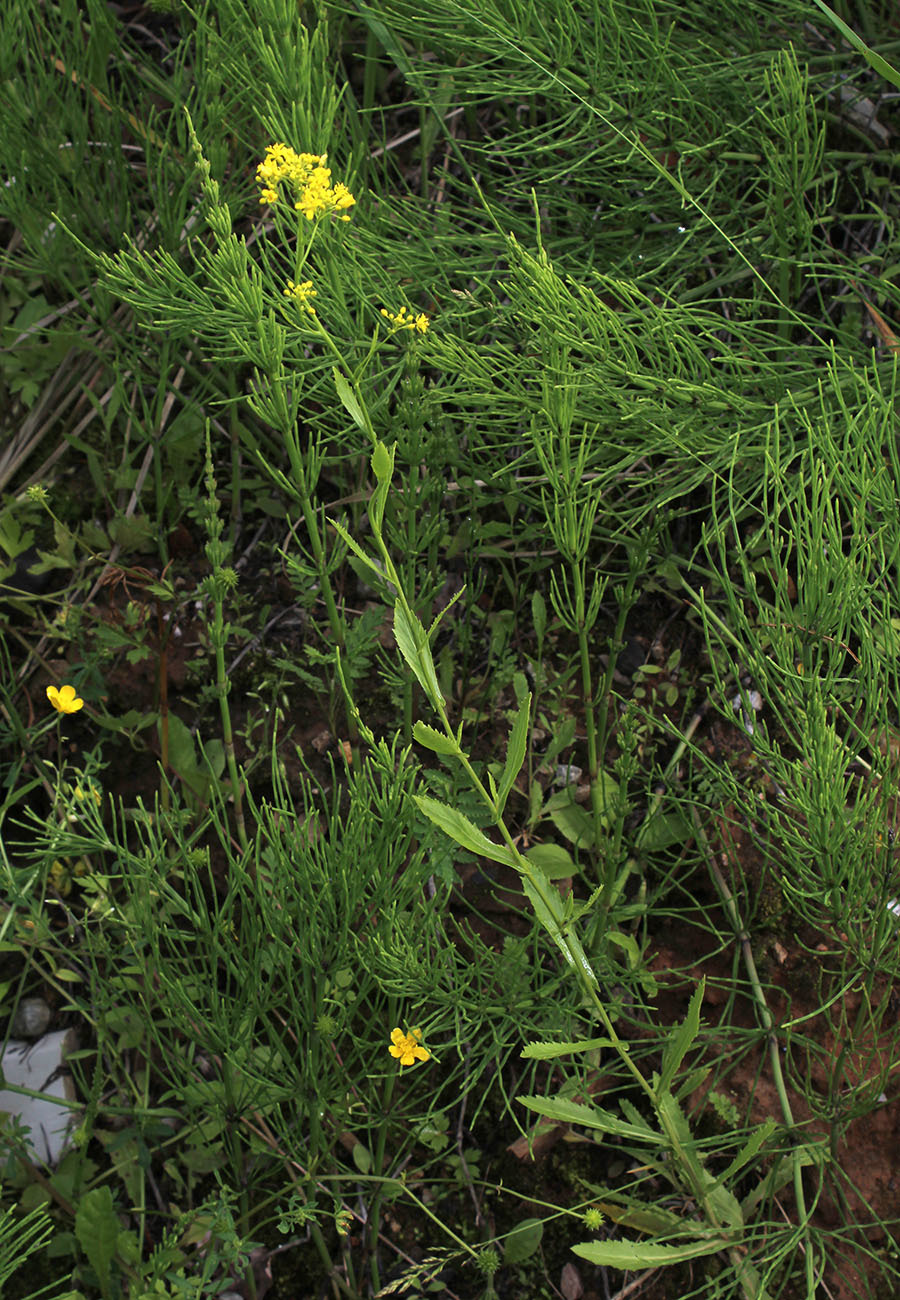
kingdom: Plantae
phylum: Tracheophyta
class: Magnoliopsida
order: Brassicales
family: Brassicaceae
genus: Rorippa
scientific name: Rorippa austriaca
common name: Austrian yellow-cress
